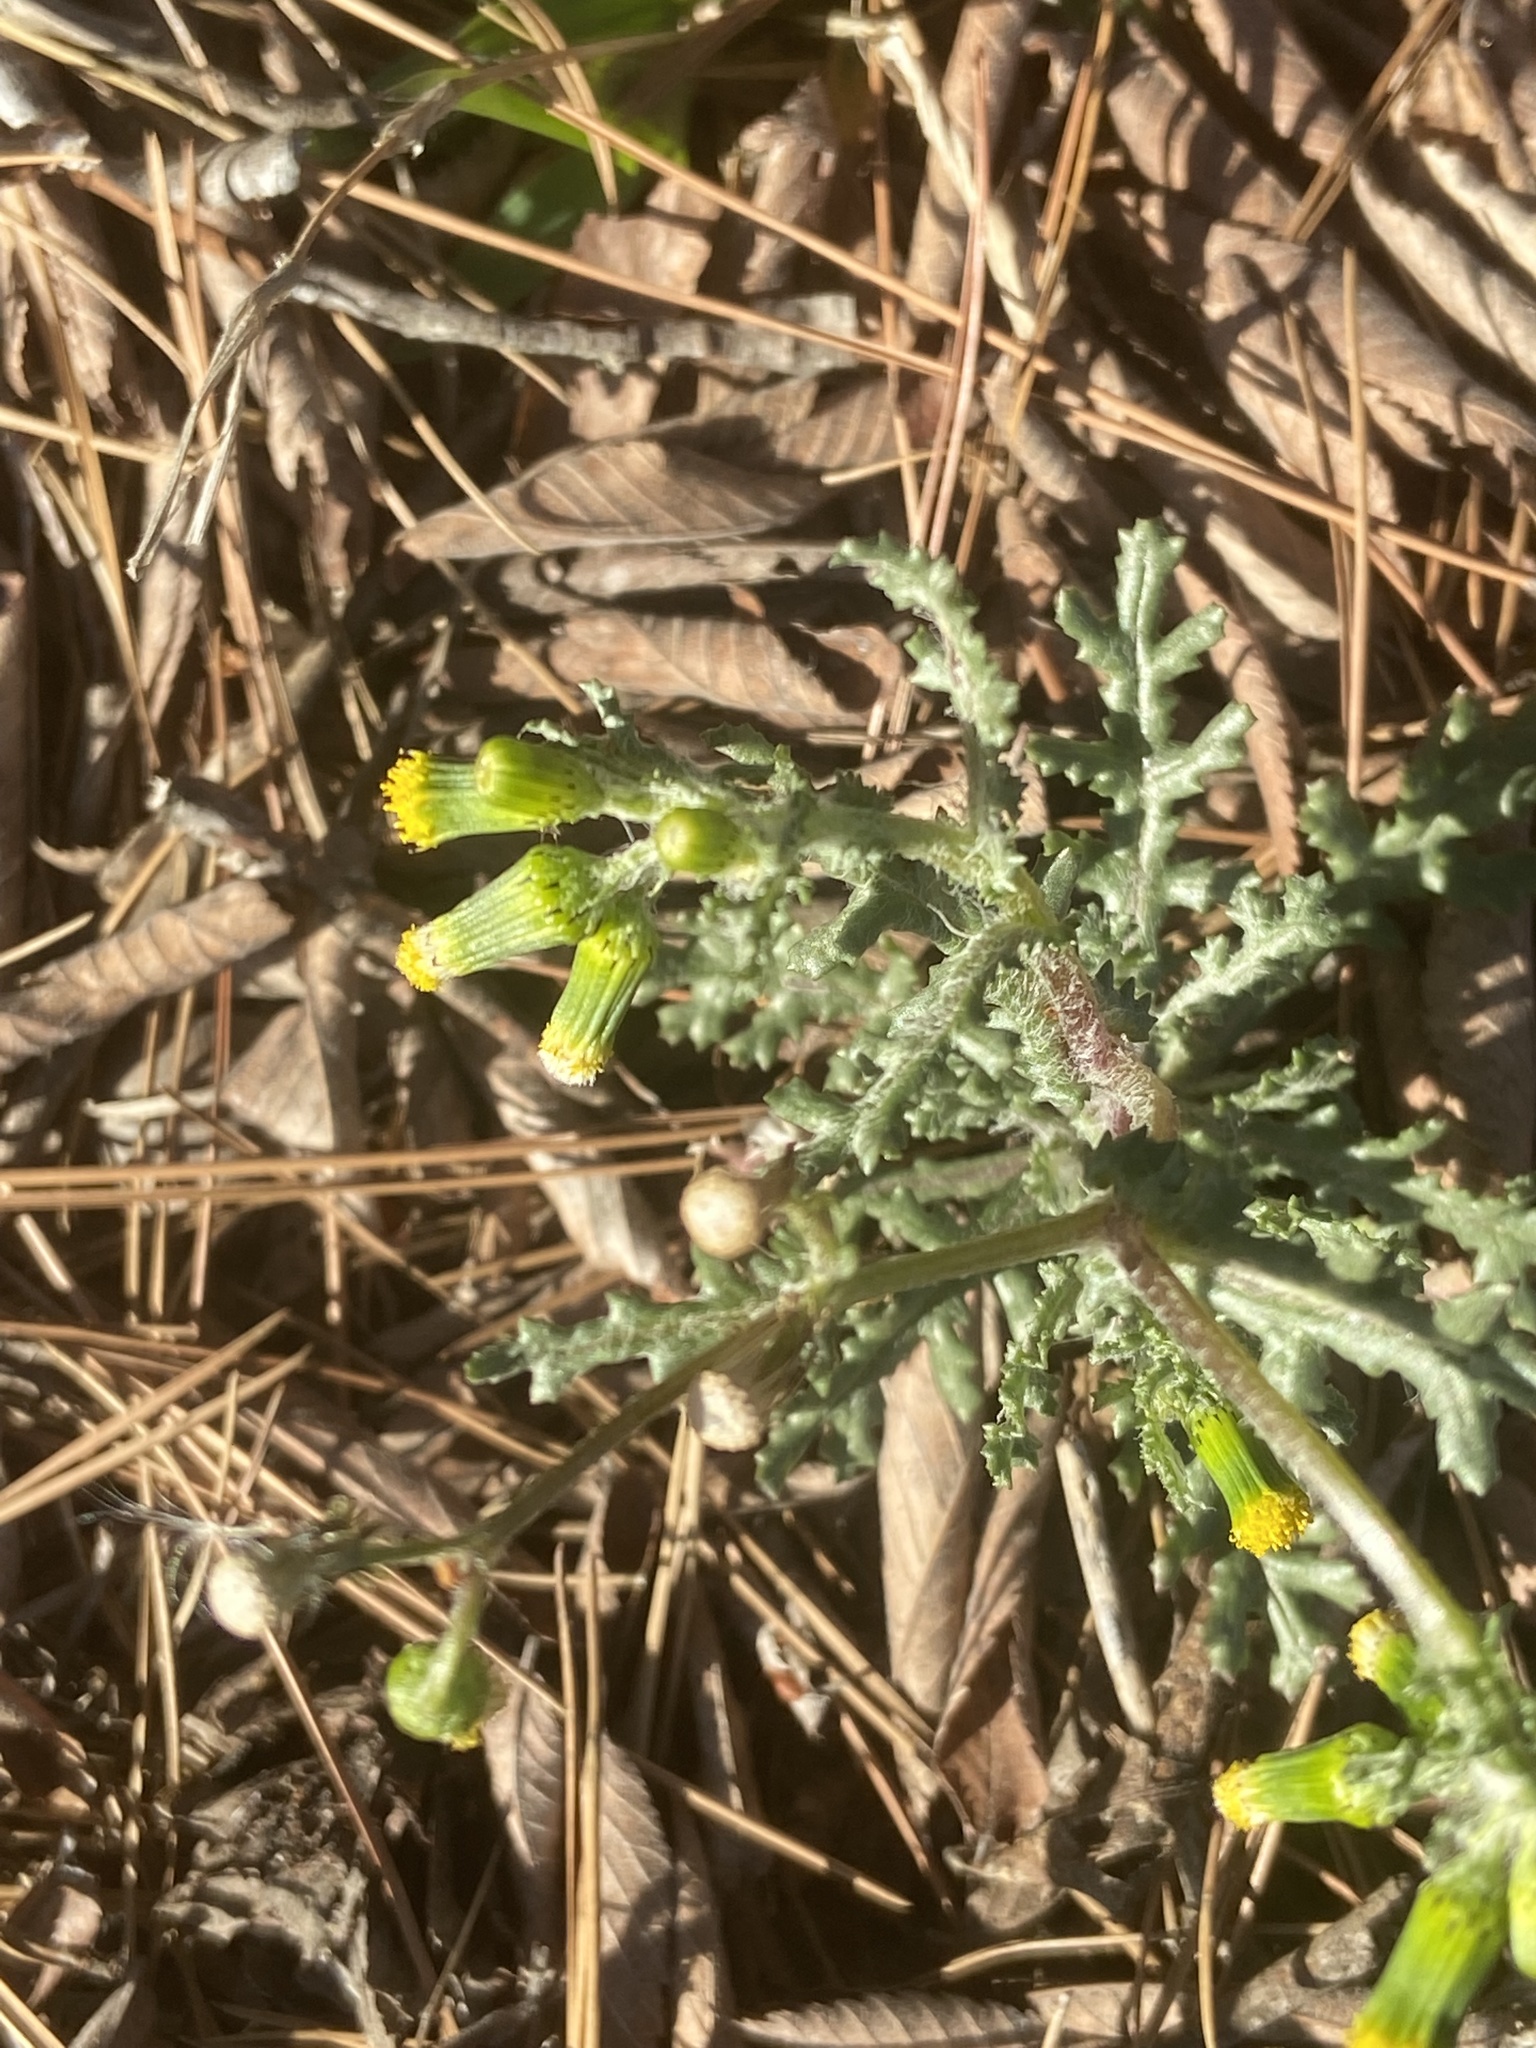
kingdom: Plantae
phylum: Tracheophyta
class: Magnoliopsida
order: Asterales
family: Asteraceae
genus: Senecio
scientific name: Senecio vulgaris
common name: Old-man-in-the-spring
